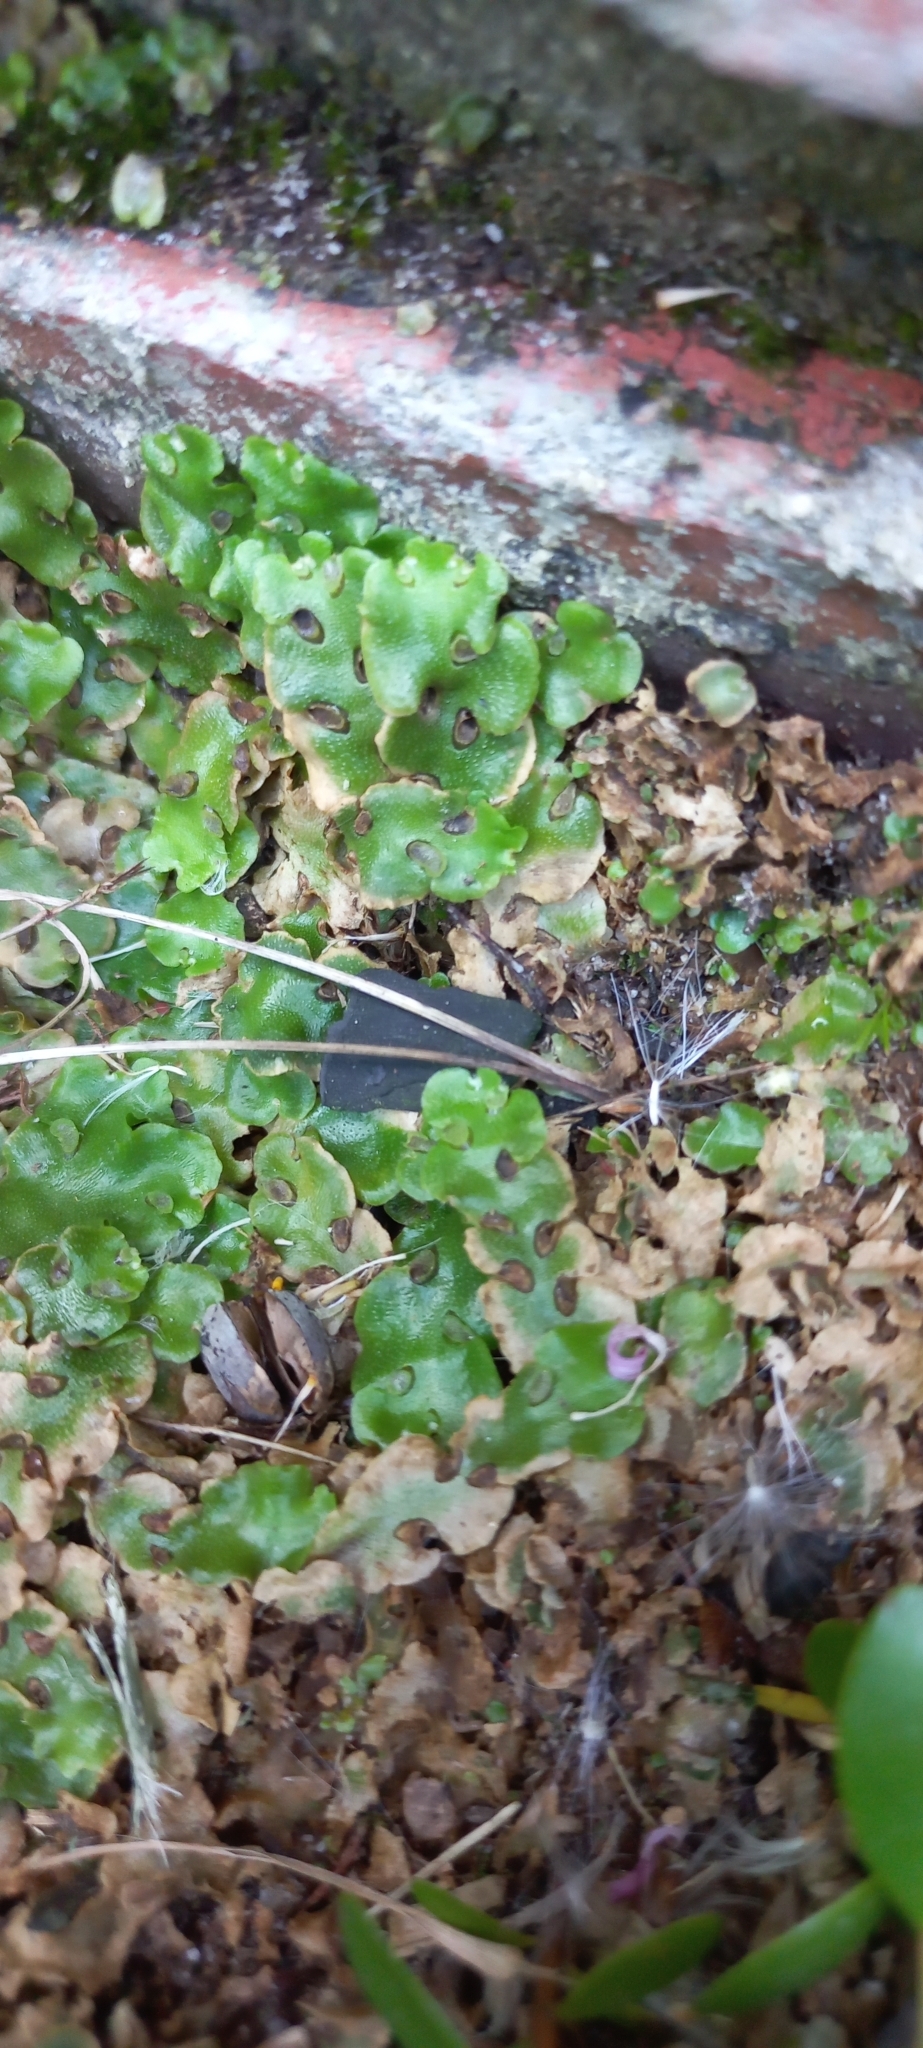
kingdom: Plantae
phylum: Marchantiophyta
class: Marchantiopsida
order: Lunulariales
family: Lunulariaceae
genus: Lunularia
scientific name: Lunularia cruciata
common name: Crescent-cup liverwort
